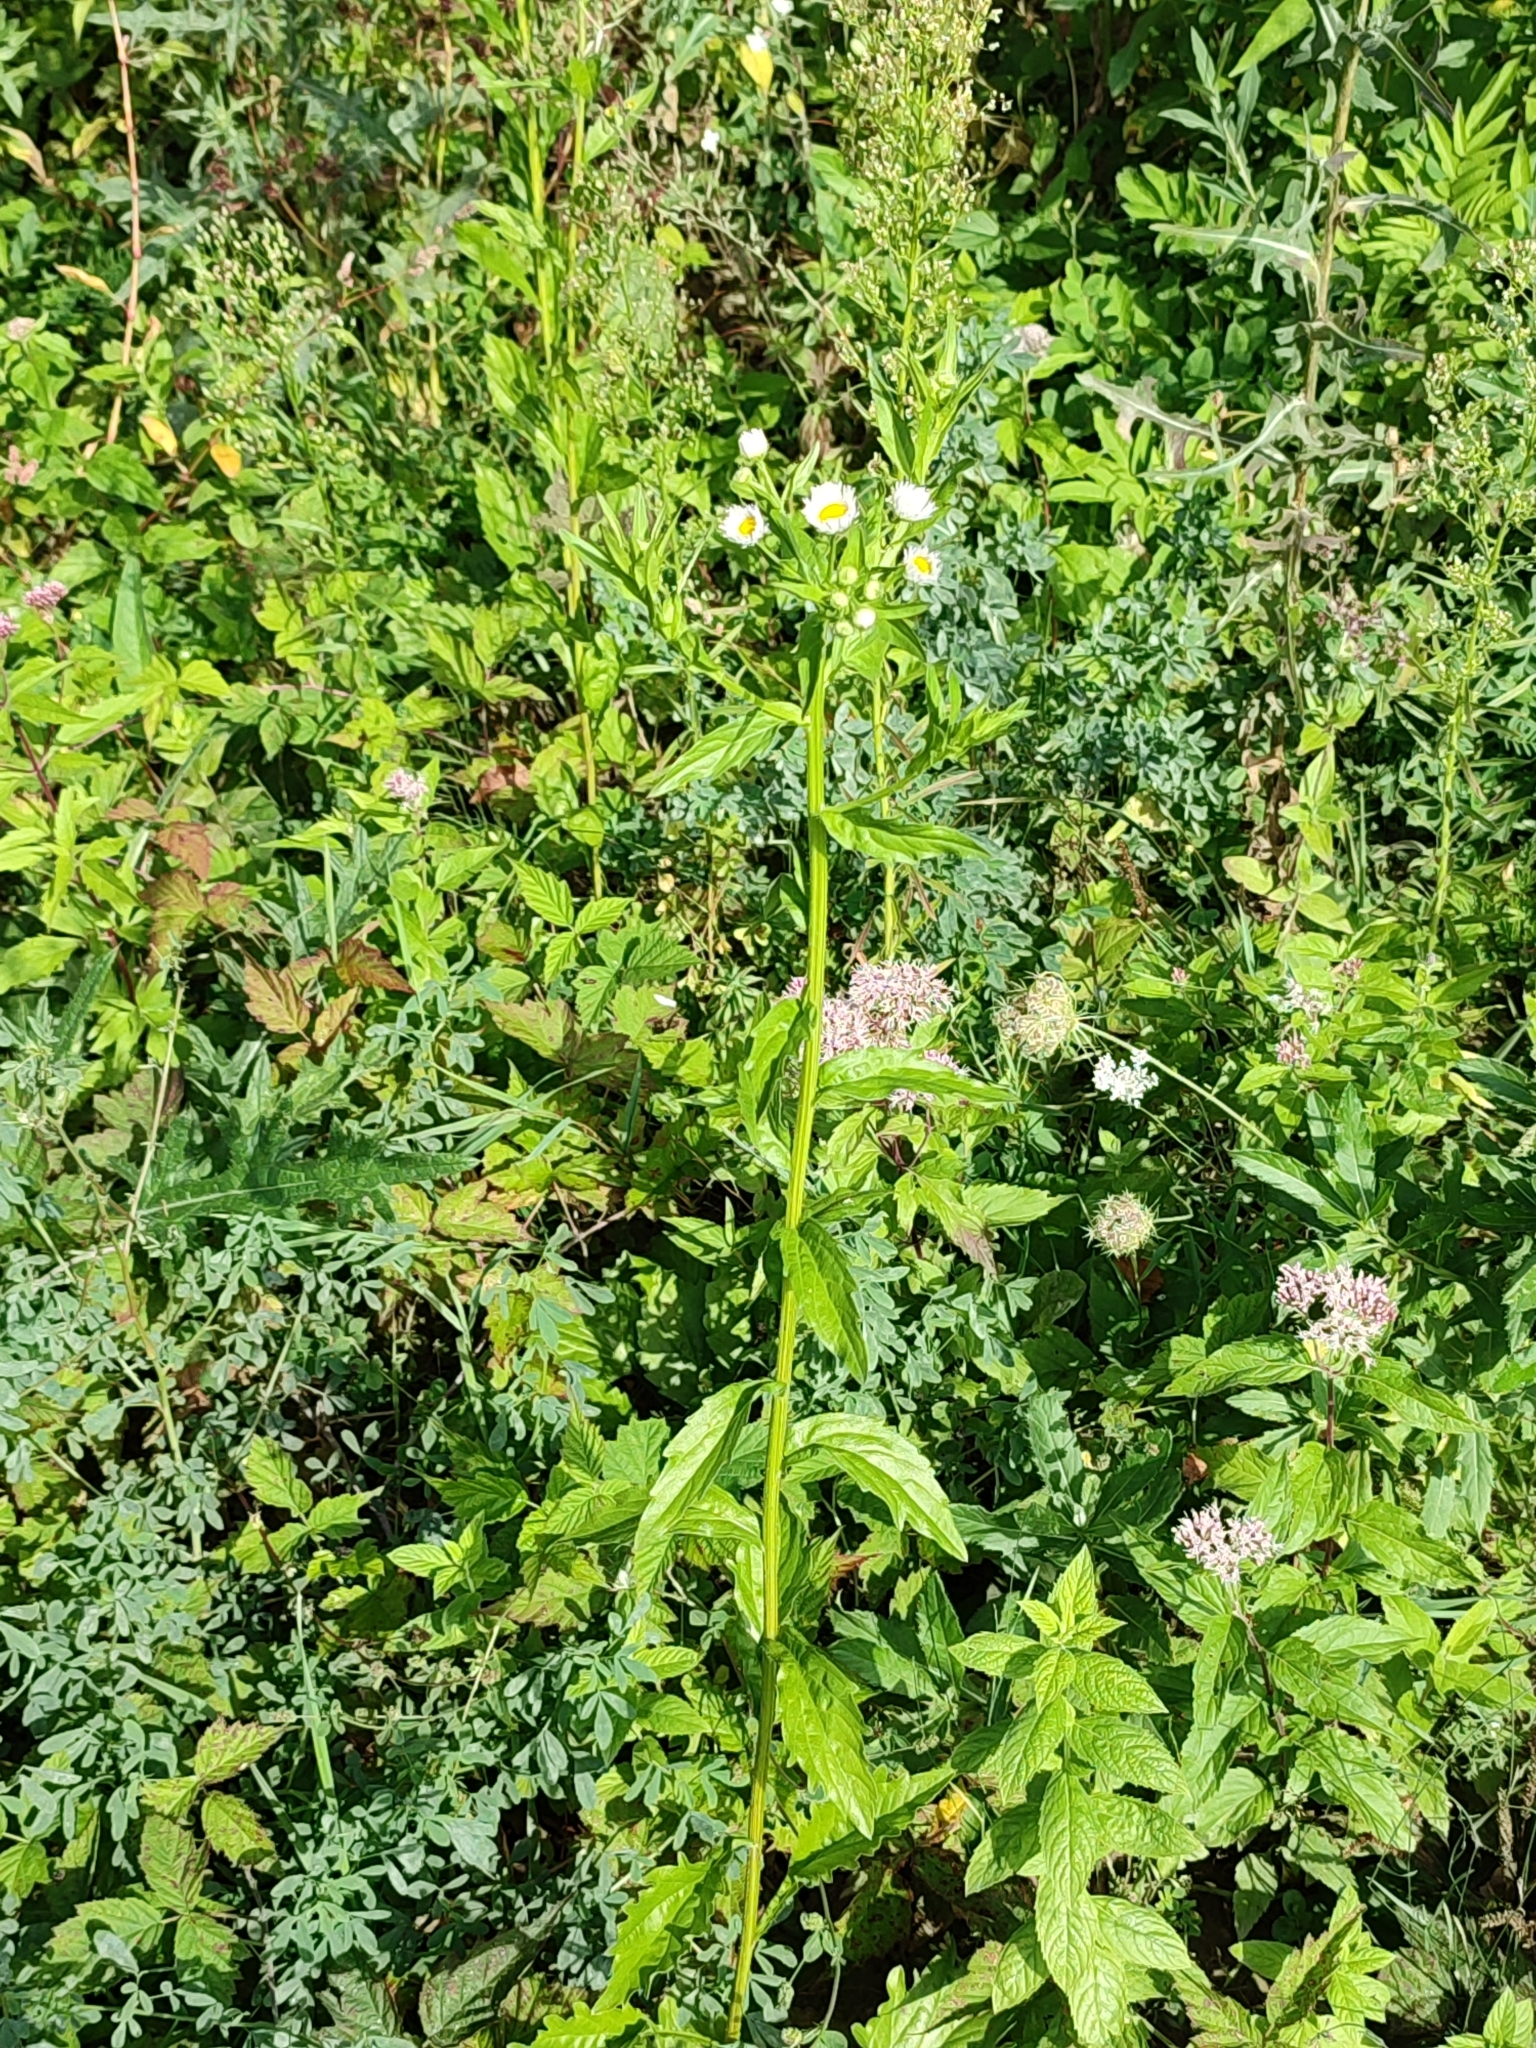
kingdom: Plantae
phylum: Tracheophyta
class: Magnoliopsida
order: Asterales
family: Asteraceae
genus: Erigeron
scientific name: Erigeron annuus
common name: Tall fleabane
